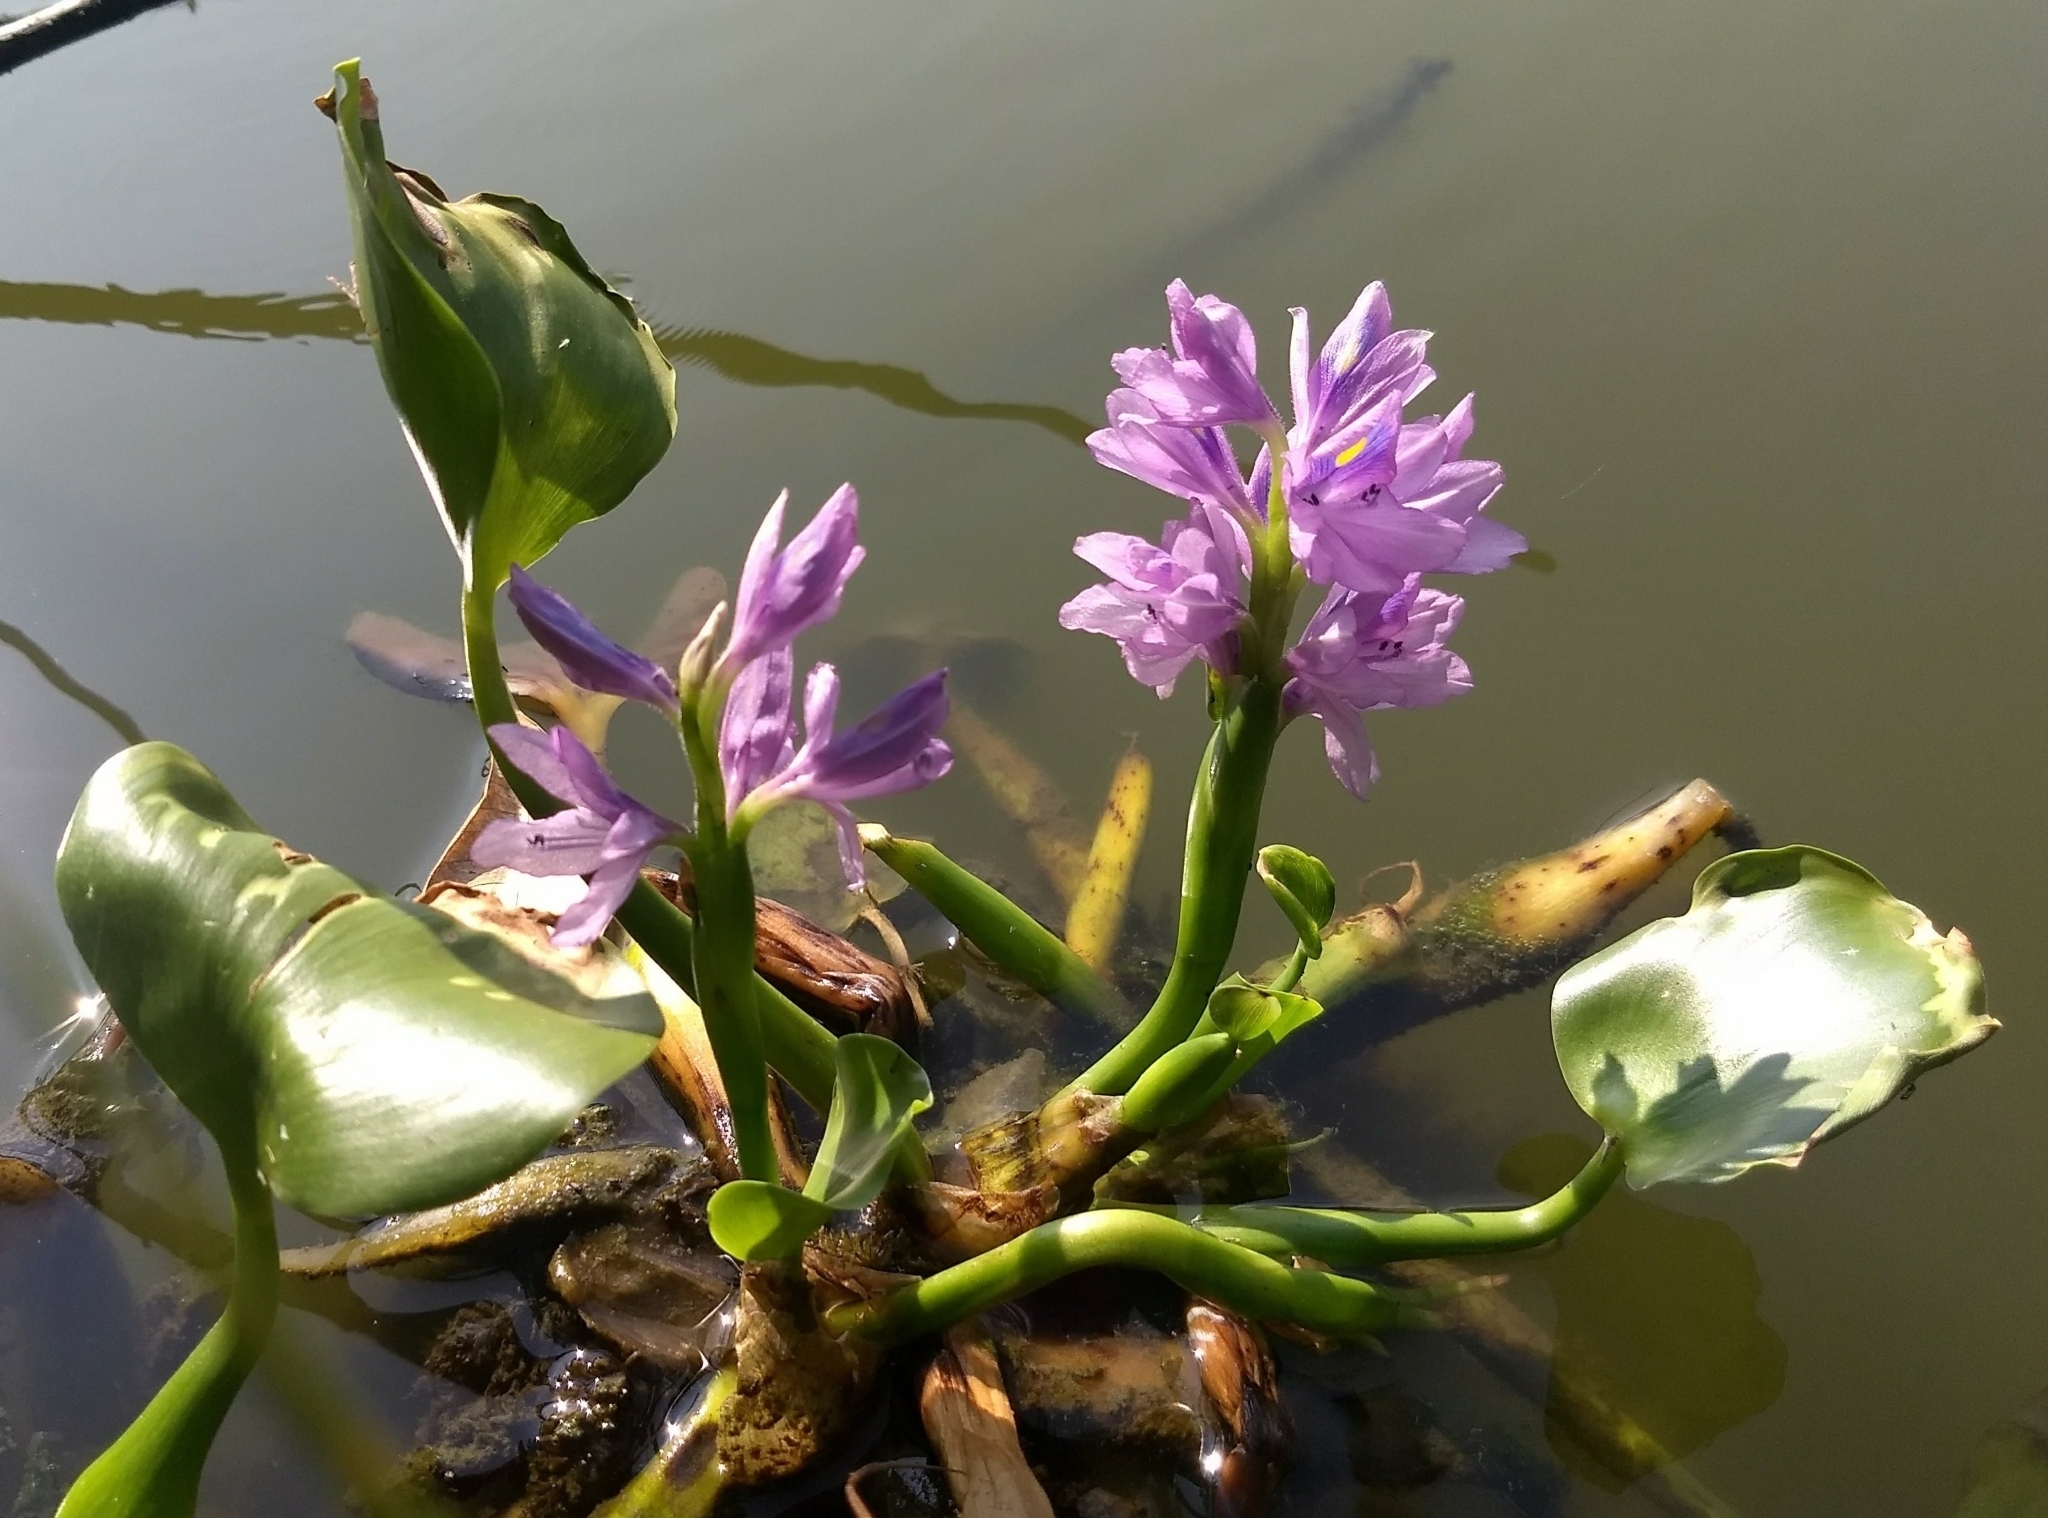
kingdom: Plantae
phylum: Tracheophyta
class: Liliopsida
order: Commelinales
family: Pontederiaceae
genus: Pontederia
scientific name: Pontederia crassipes
